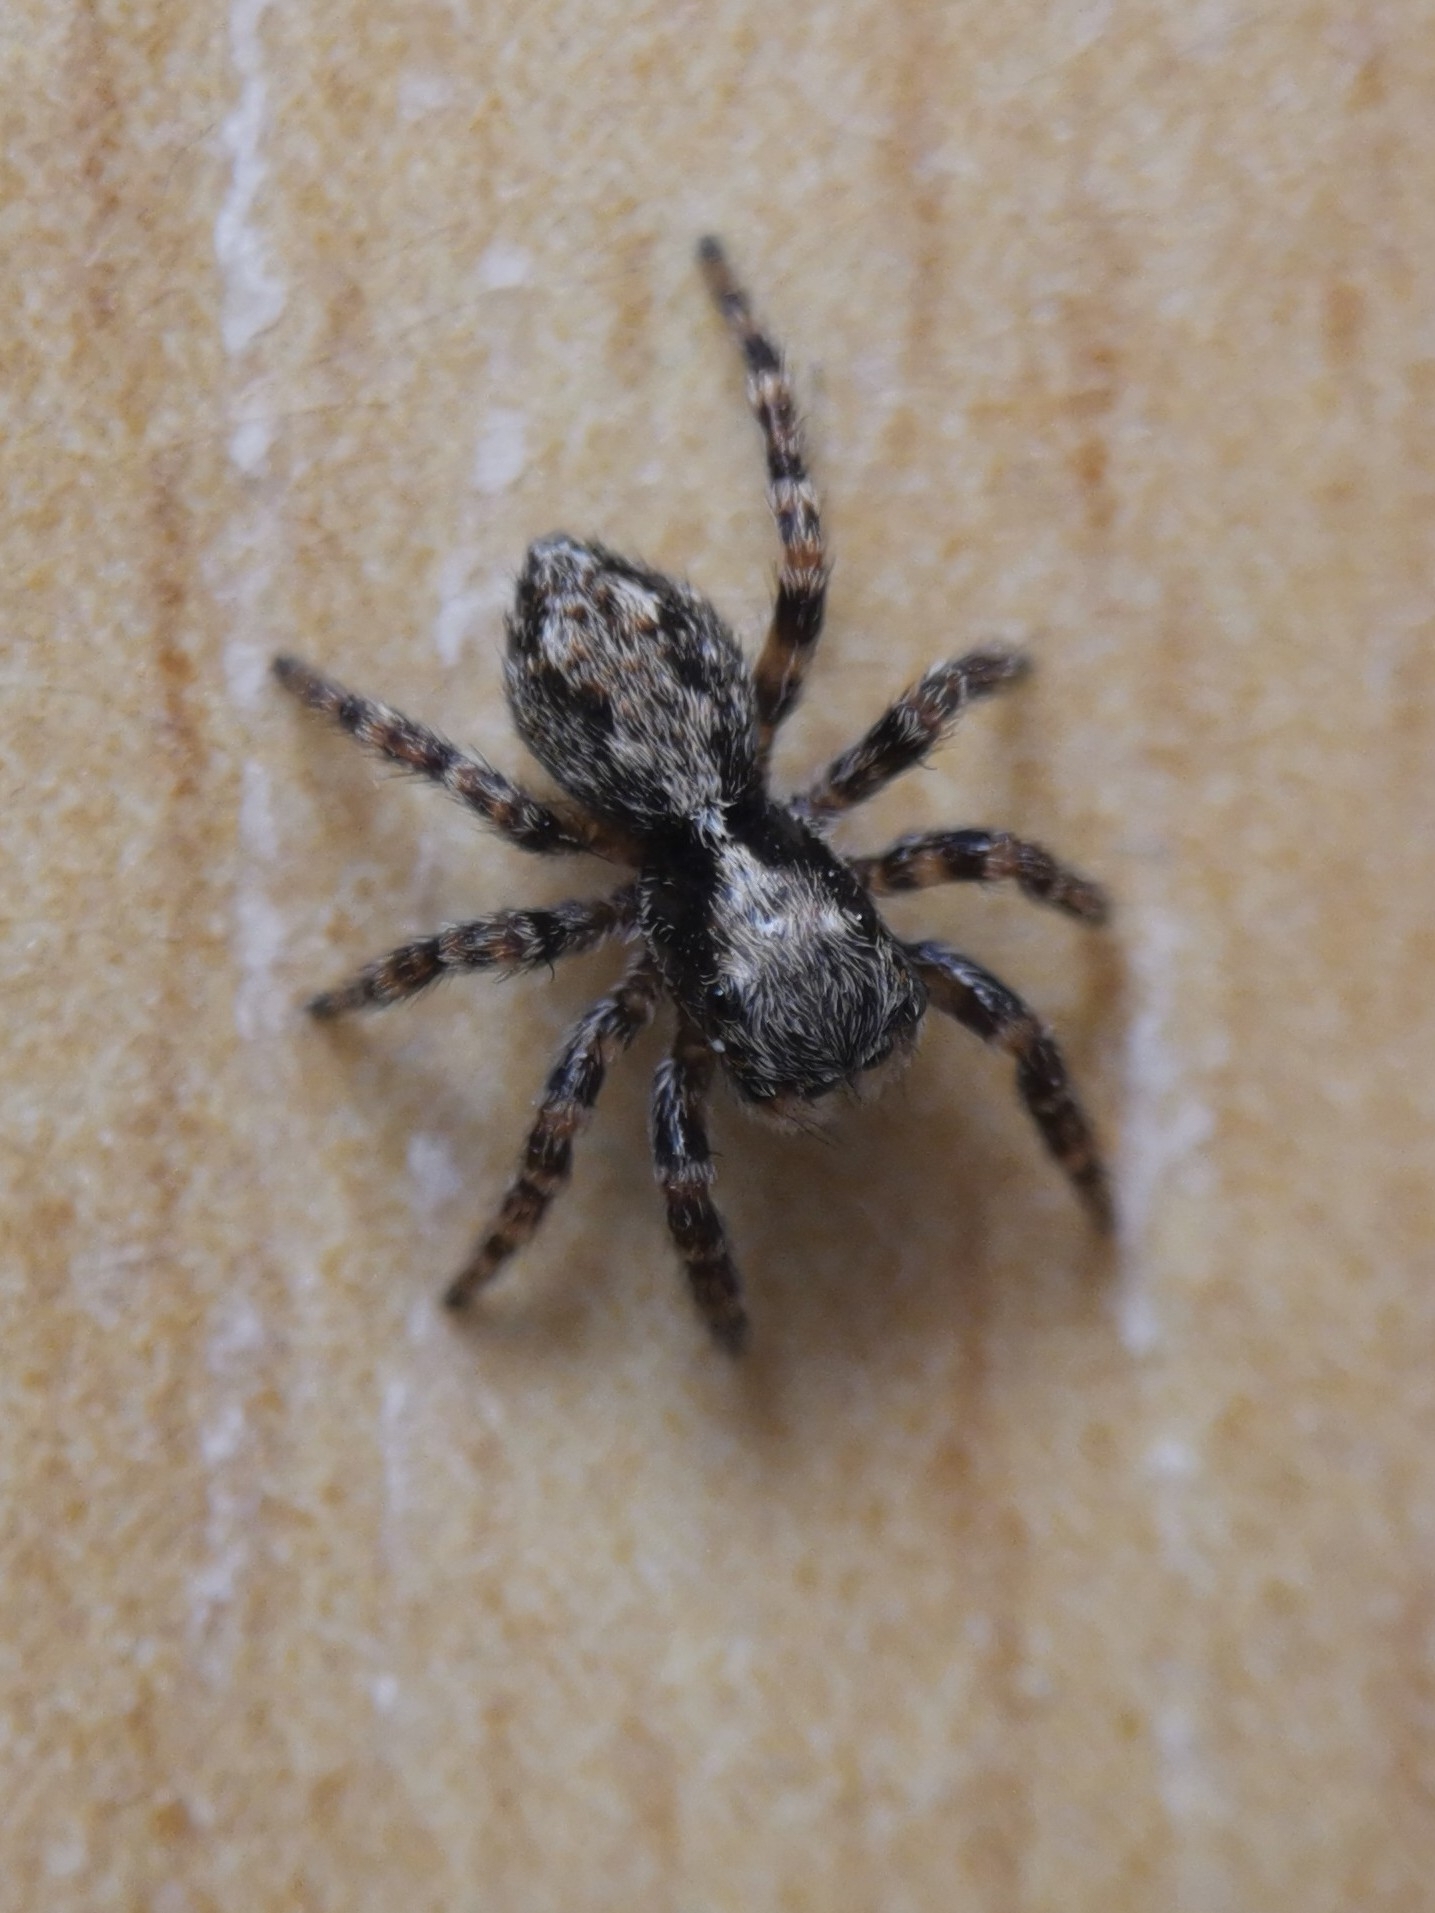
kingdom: Animalia
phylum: Arthropoda
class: Arachnida
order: Araneae
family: Salticidae
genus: Pseudeuophrys
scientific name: Pseudeuophrys lanigera
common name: Jumping spider
